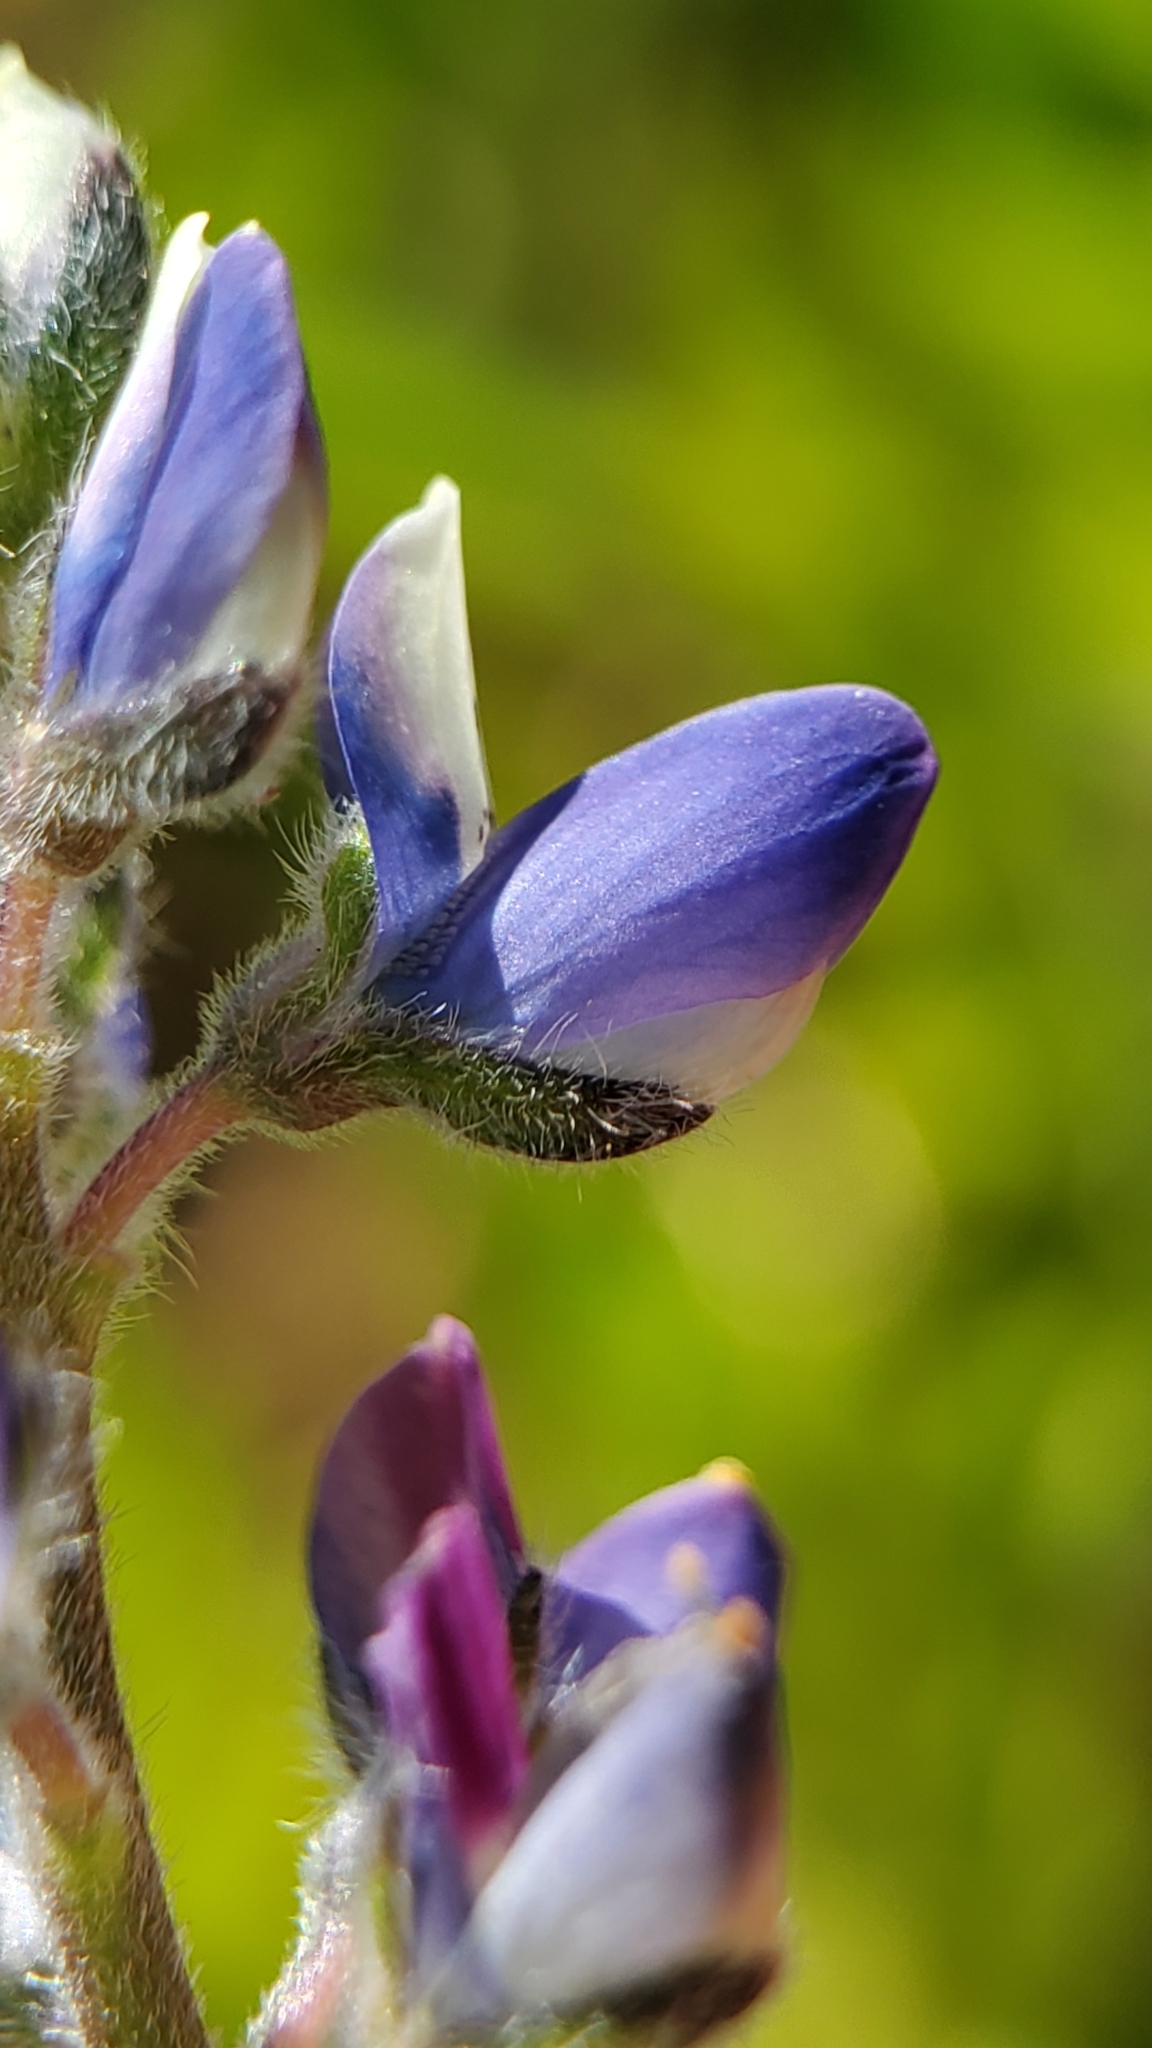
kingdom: Plantae
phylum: Tracheophyta
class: Magnoliopsida
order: Fabales
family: Fabaceae
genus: Lupinus
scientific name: Lupinus bicolor
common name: Miniature lupine
